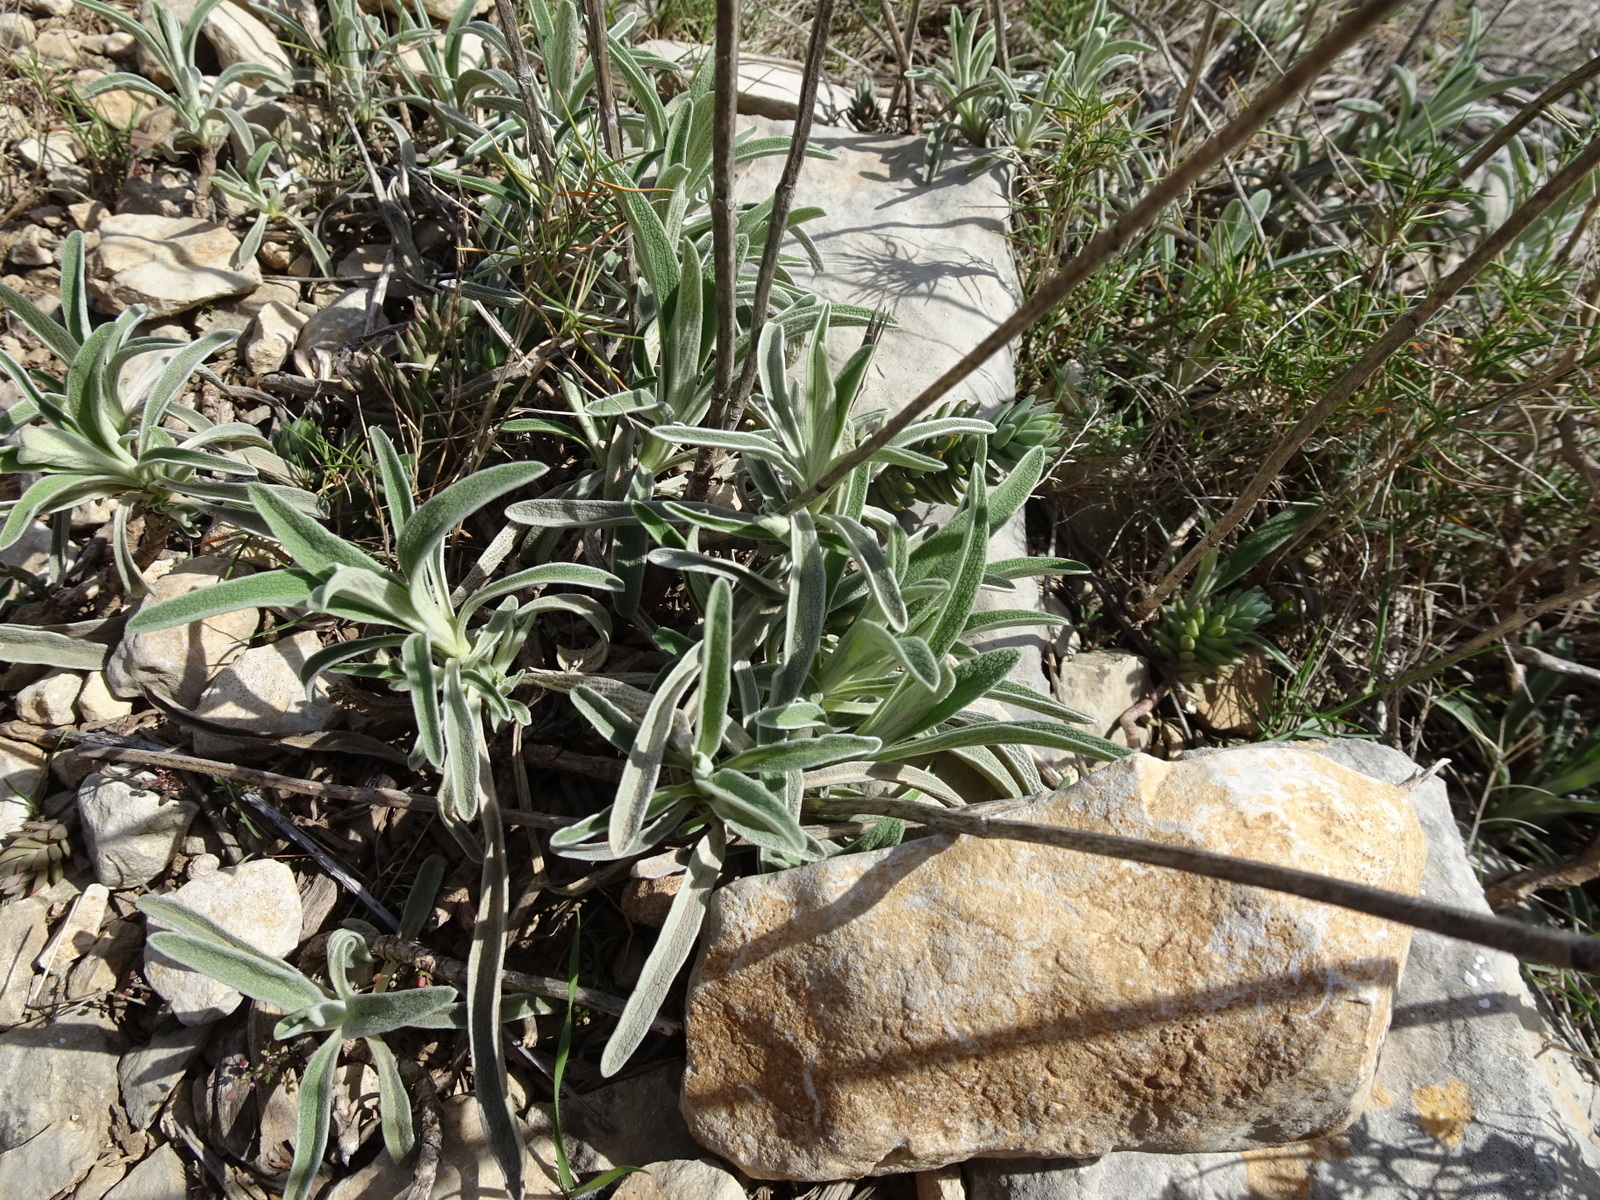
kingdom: Plantae
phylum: Tracheophyta
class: Magnoliopsida
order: Lamiales
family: Lamiaceae
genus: Phlomis
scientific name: Phlomis lychnitis
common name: Lampwickplant
